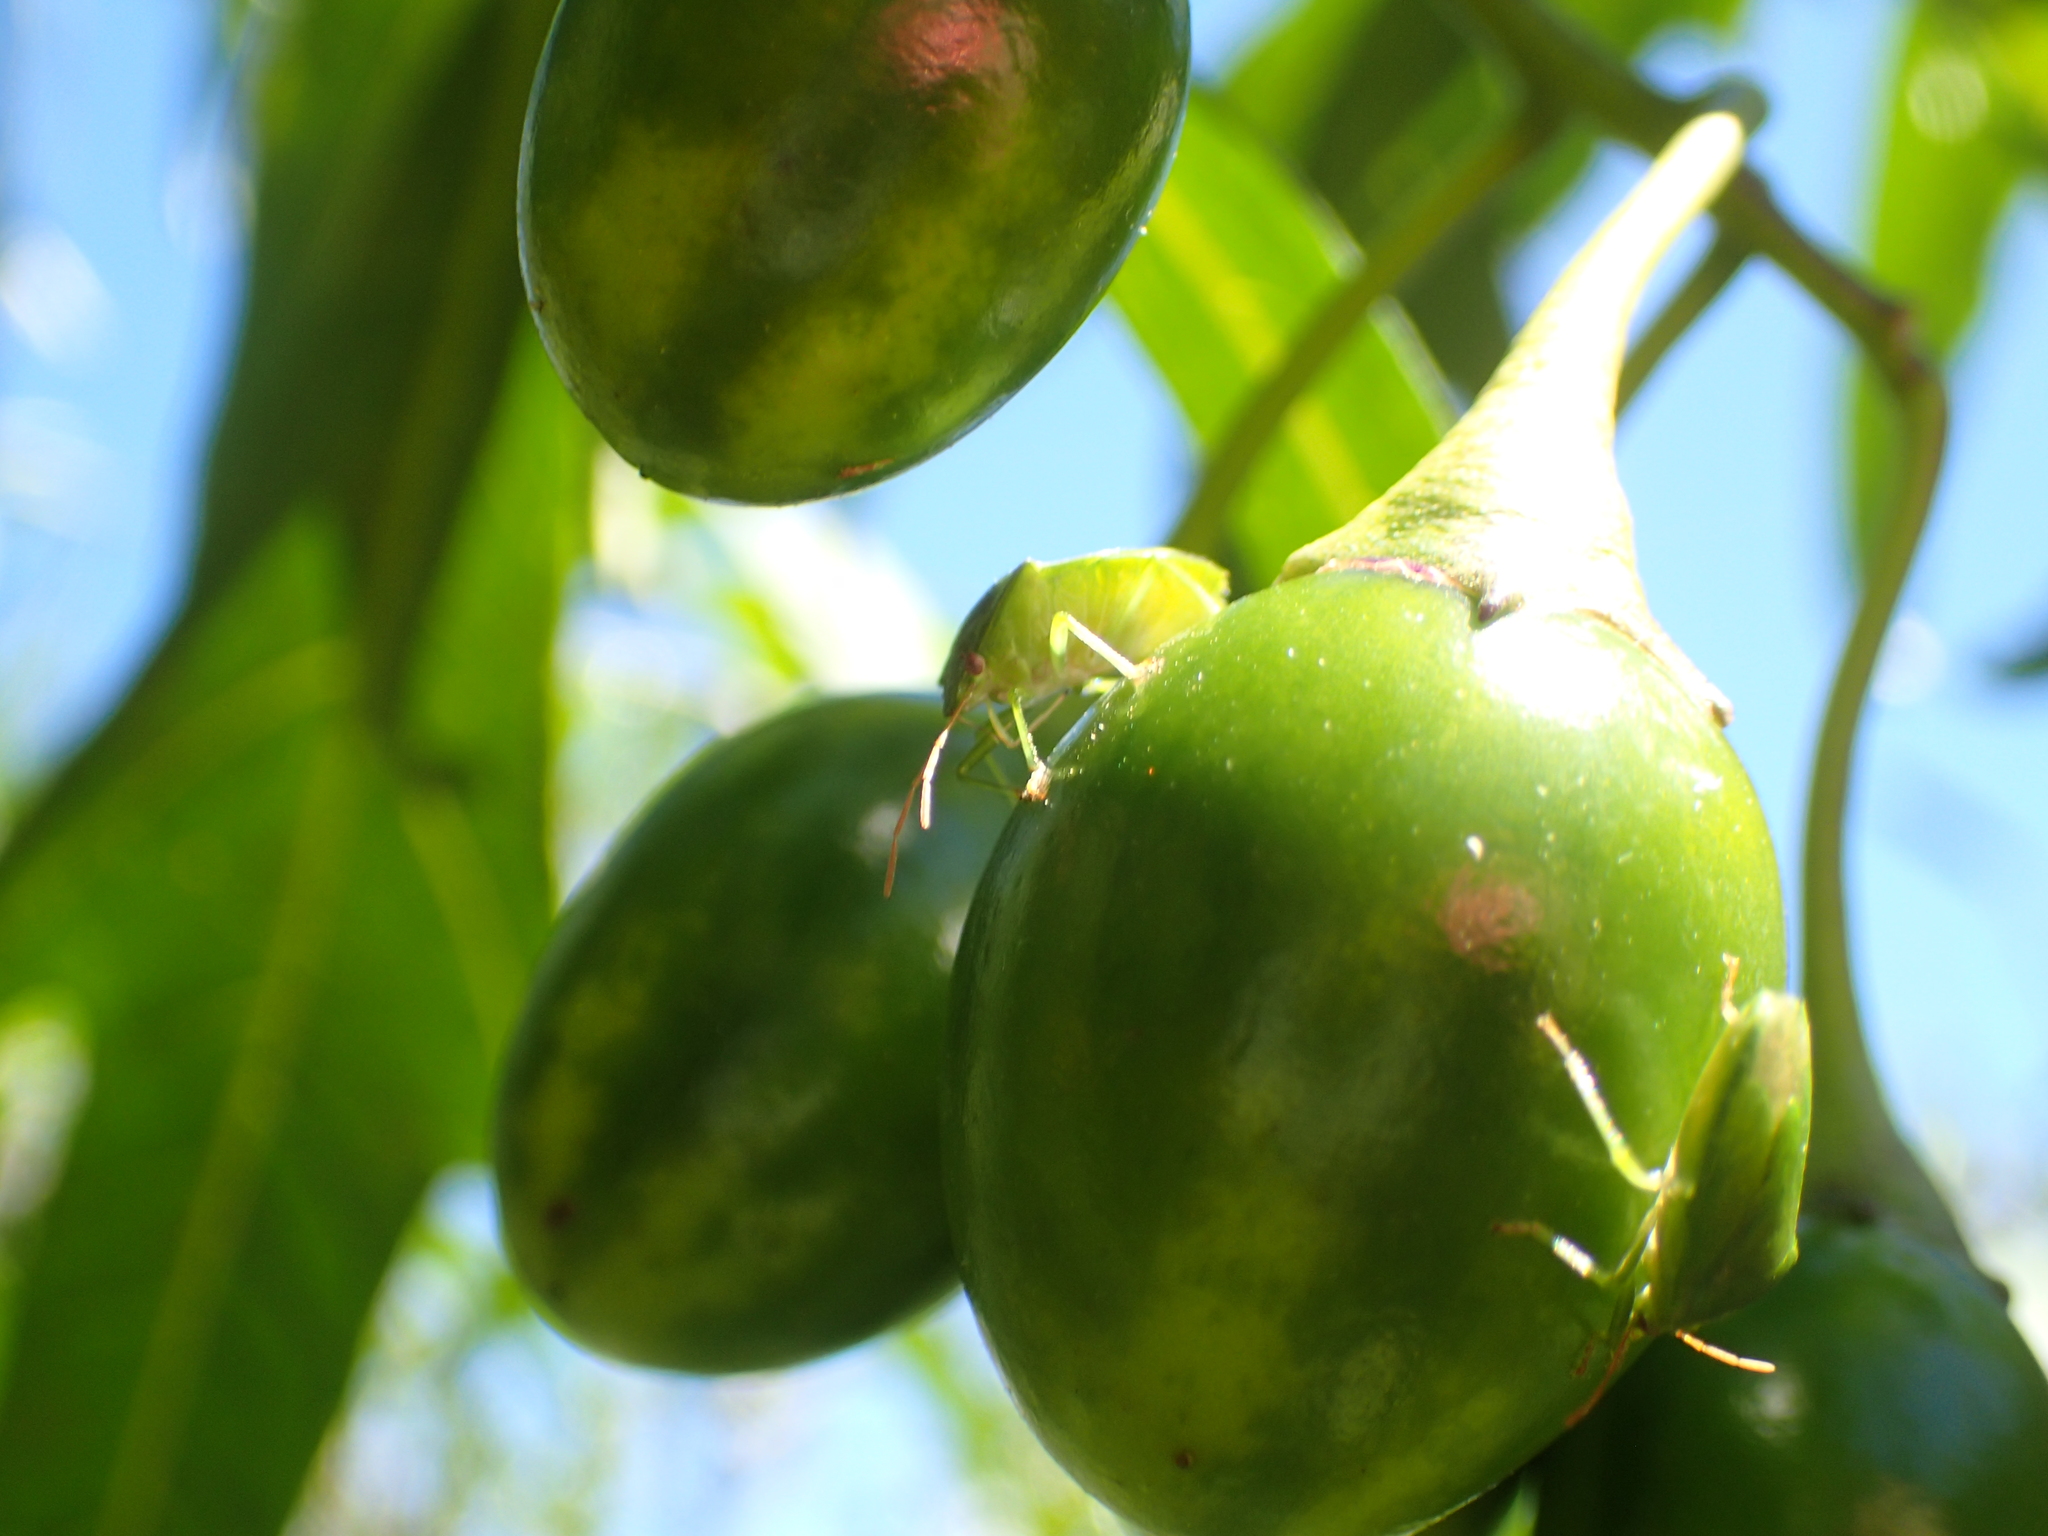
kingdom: Animalia
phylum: Arthropoda
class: Insecta
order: Hemiptera
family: Pentatomidae
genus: Cuspicona
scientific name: Cuspicona simplex
